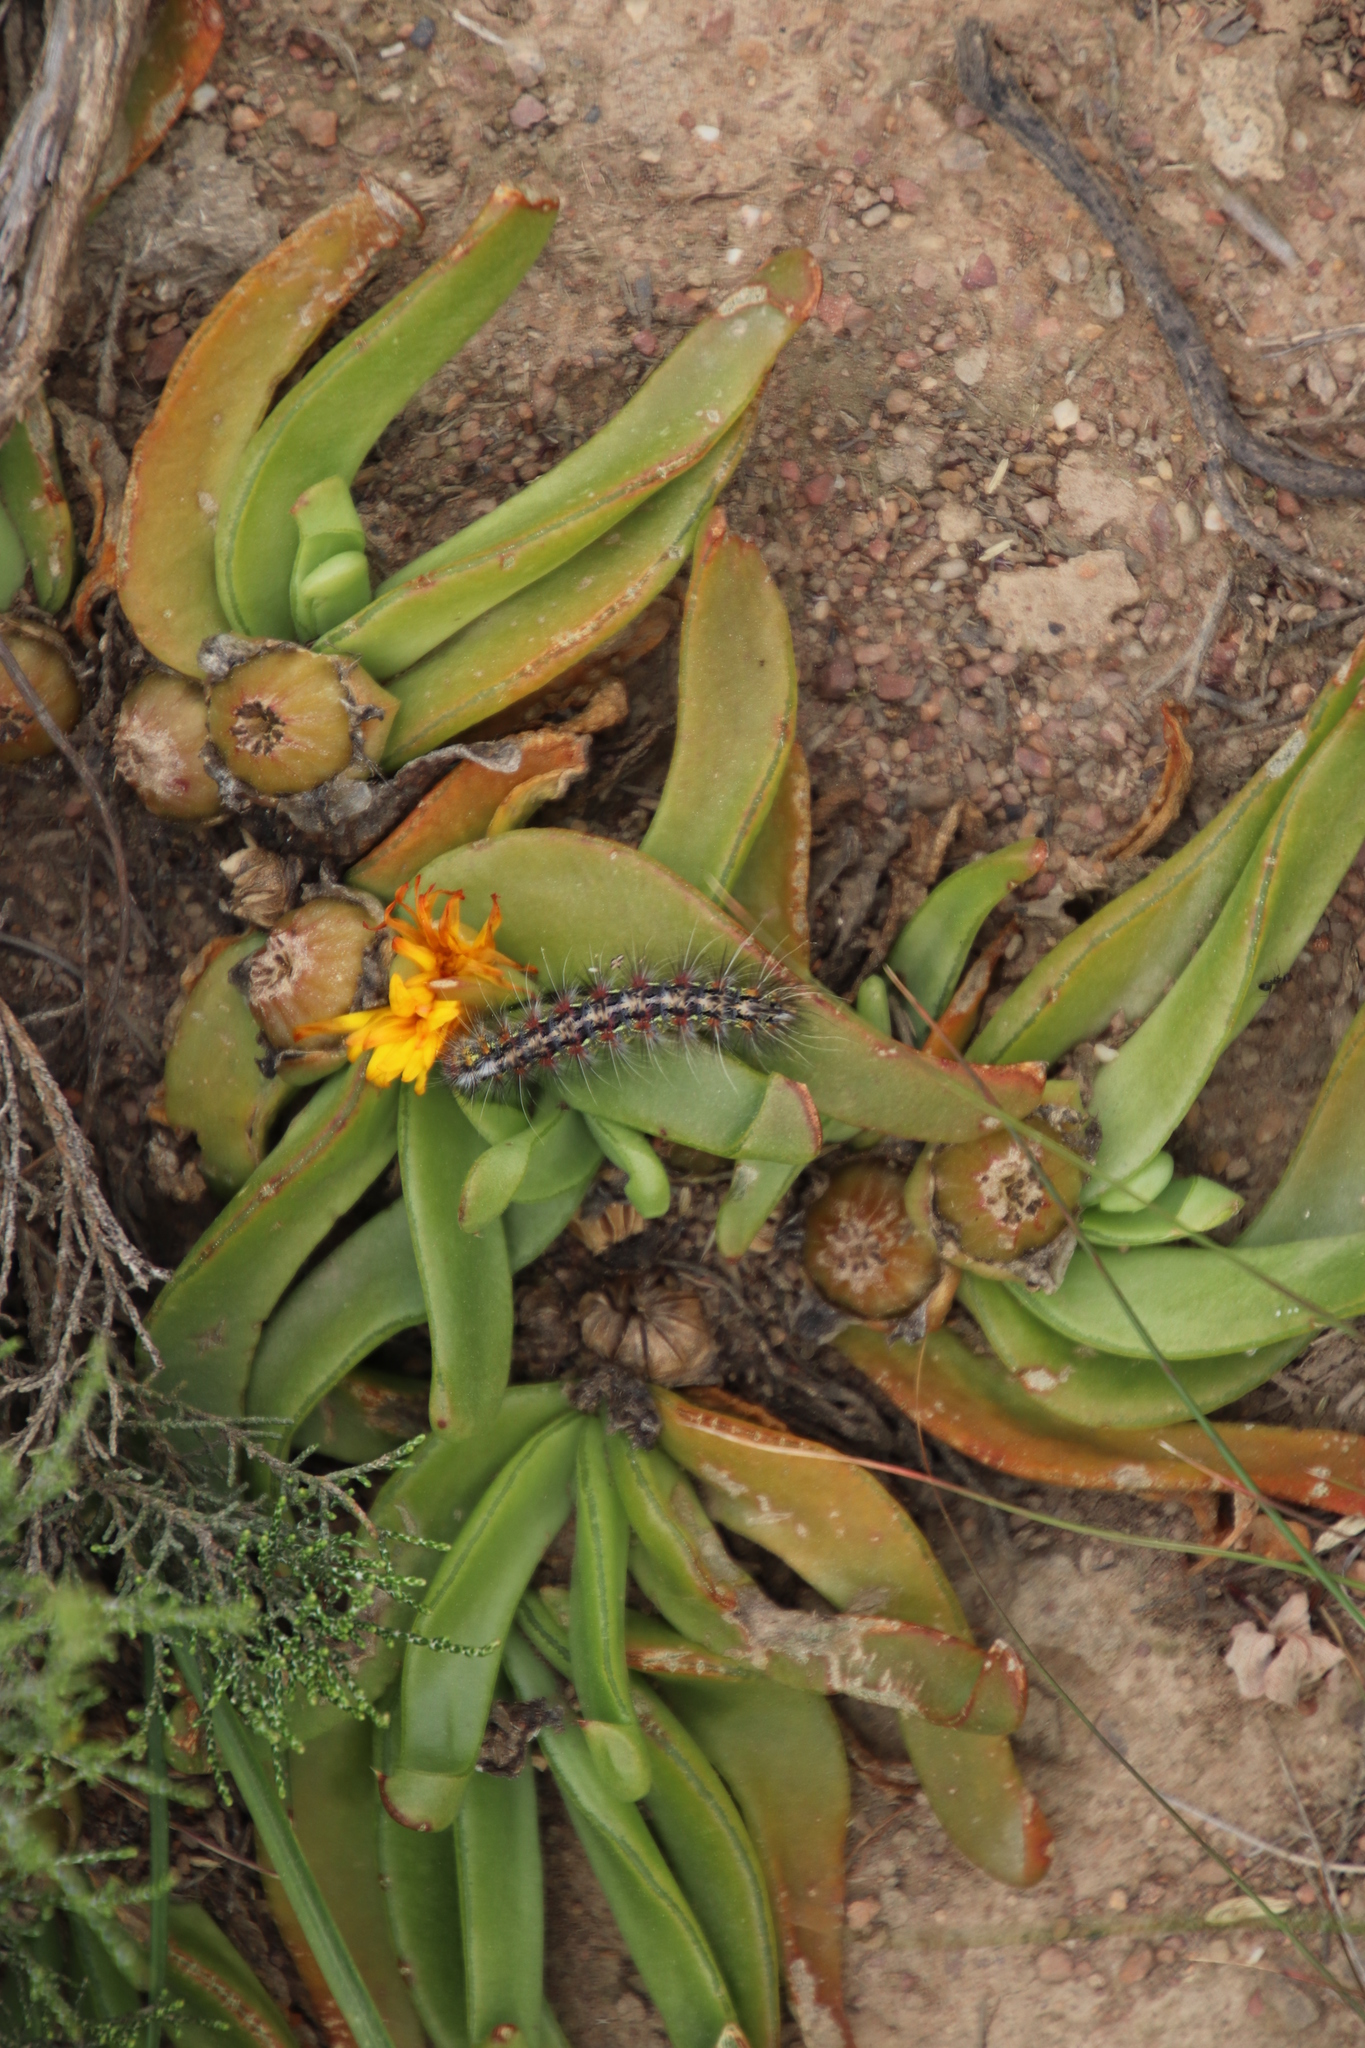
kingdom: Plantae
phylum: Tracheophyta
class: Magnoliopsida
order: Caryophyllales
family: Aizoaceae
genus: Glottiphyllum
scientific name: Glottiphyllum depressum
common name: Fig-marigold
